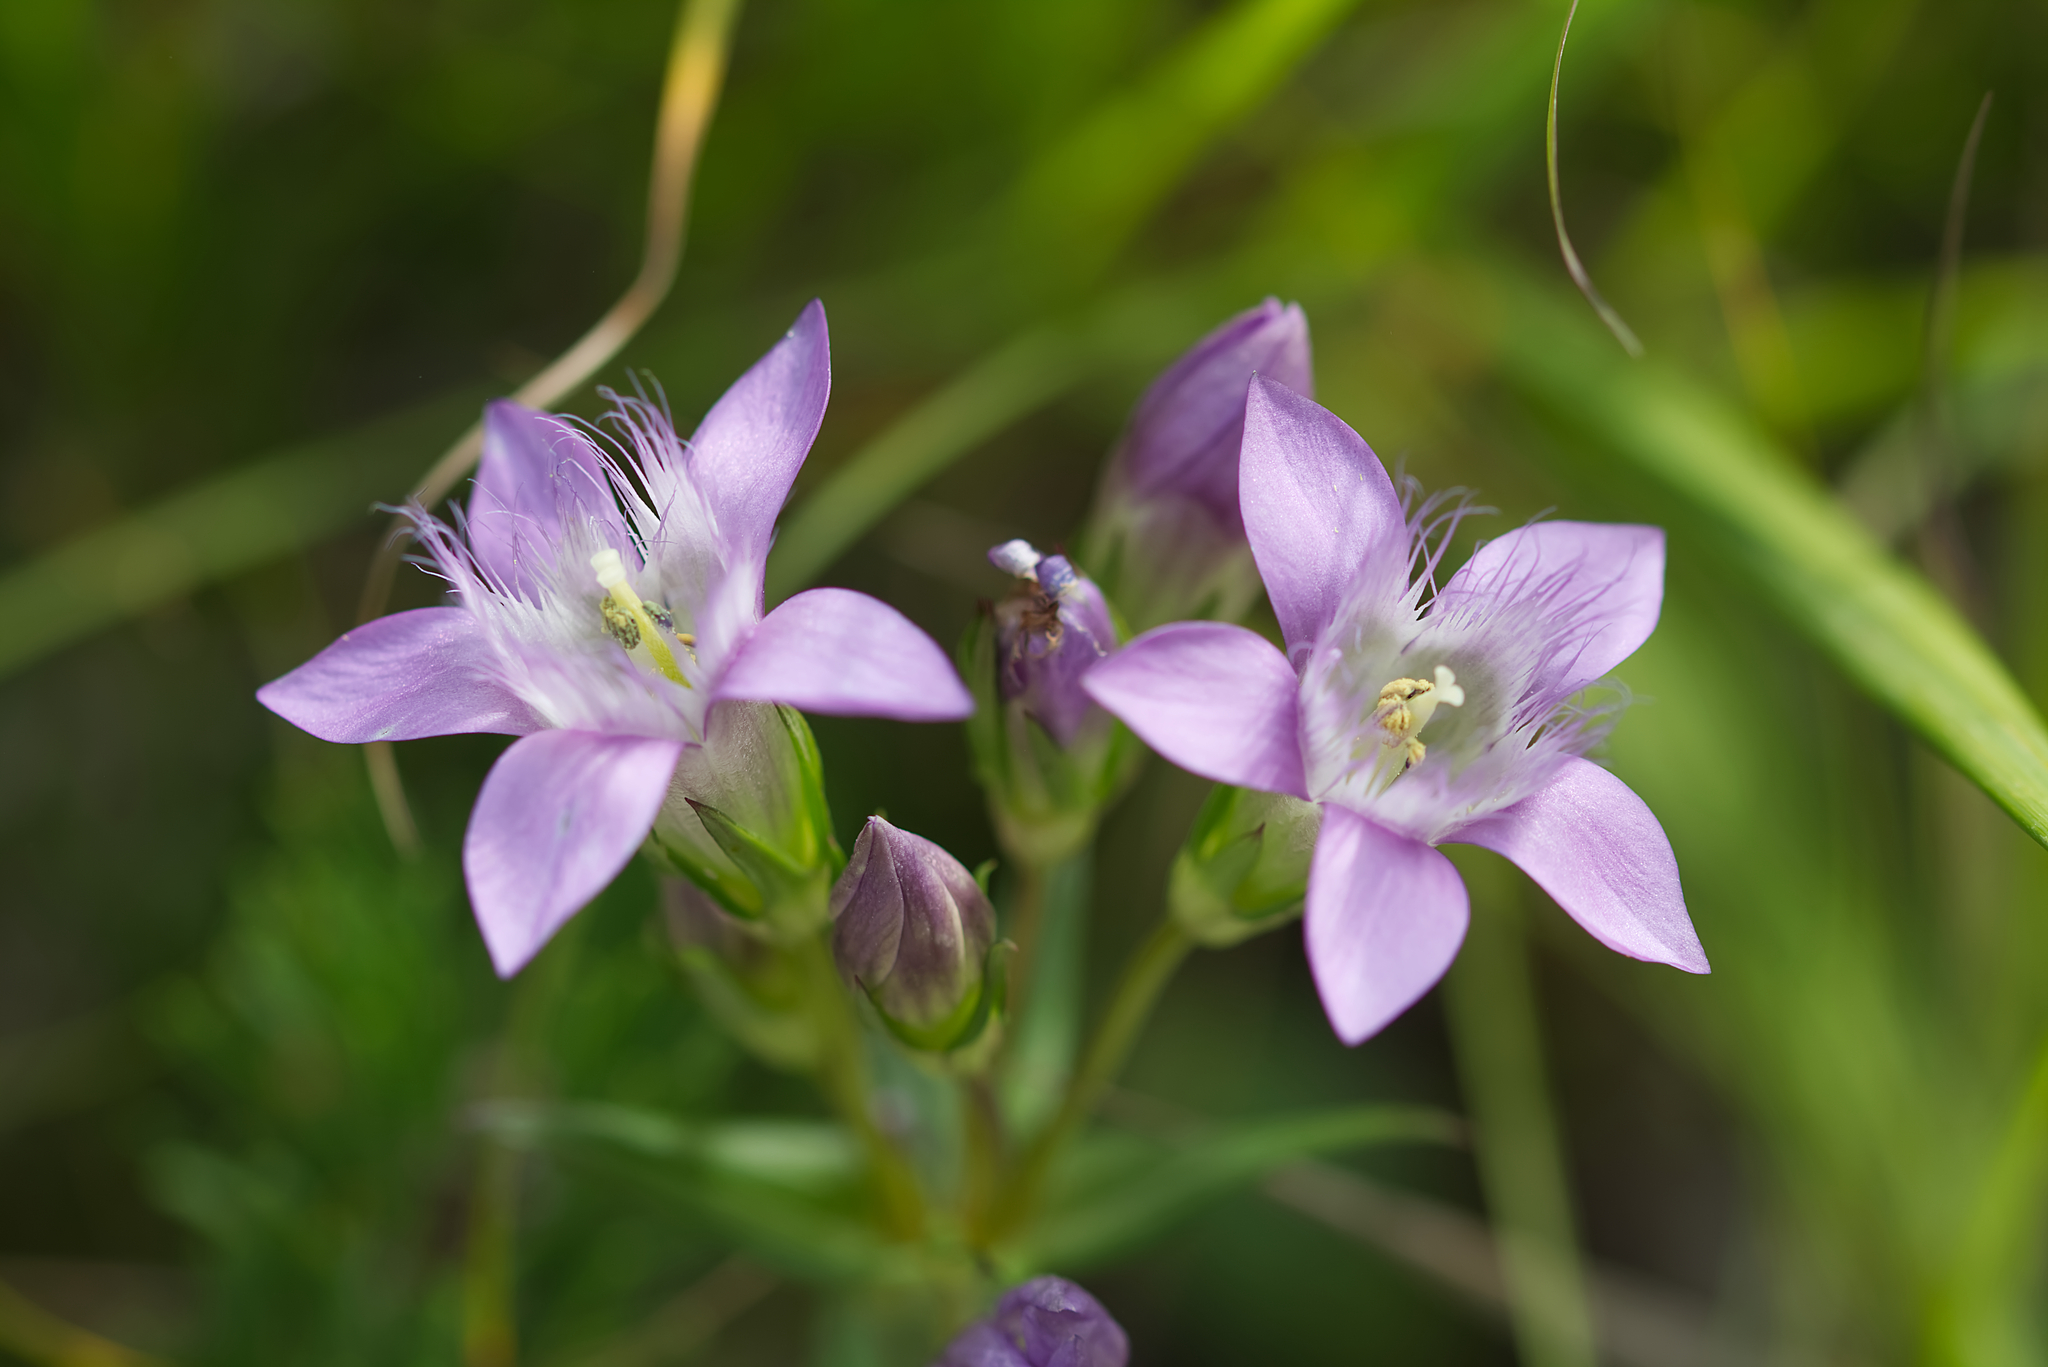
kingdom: Plantae
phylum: Tracheophyta
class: Magnoliopsida
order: Gentianales
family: Gentianaceae
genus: Gentianella
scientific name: Gentianella austriaca
